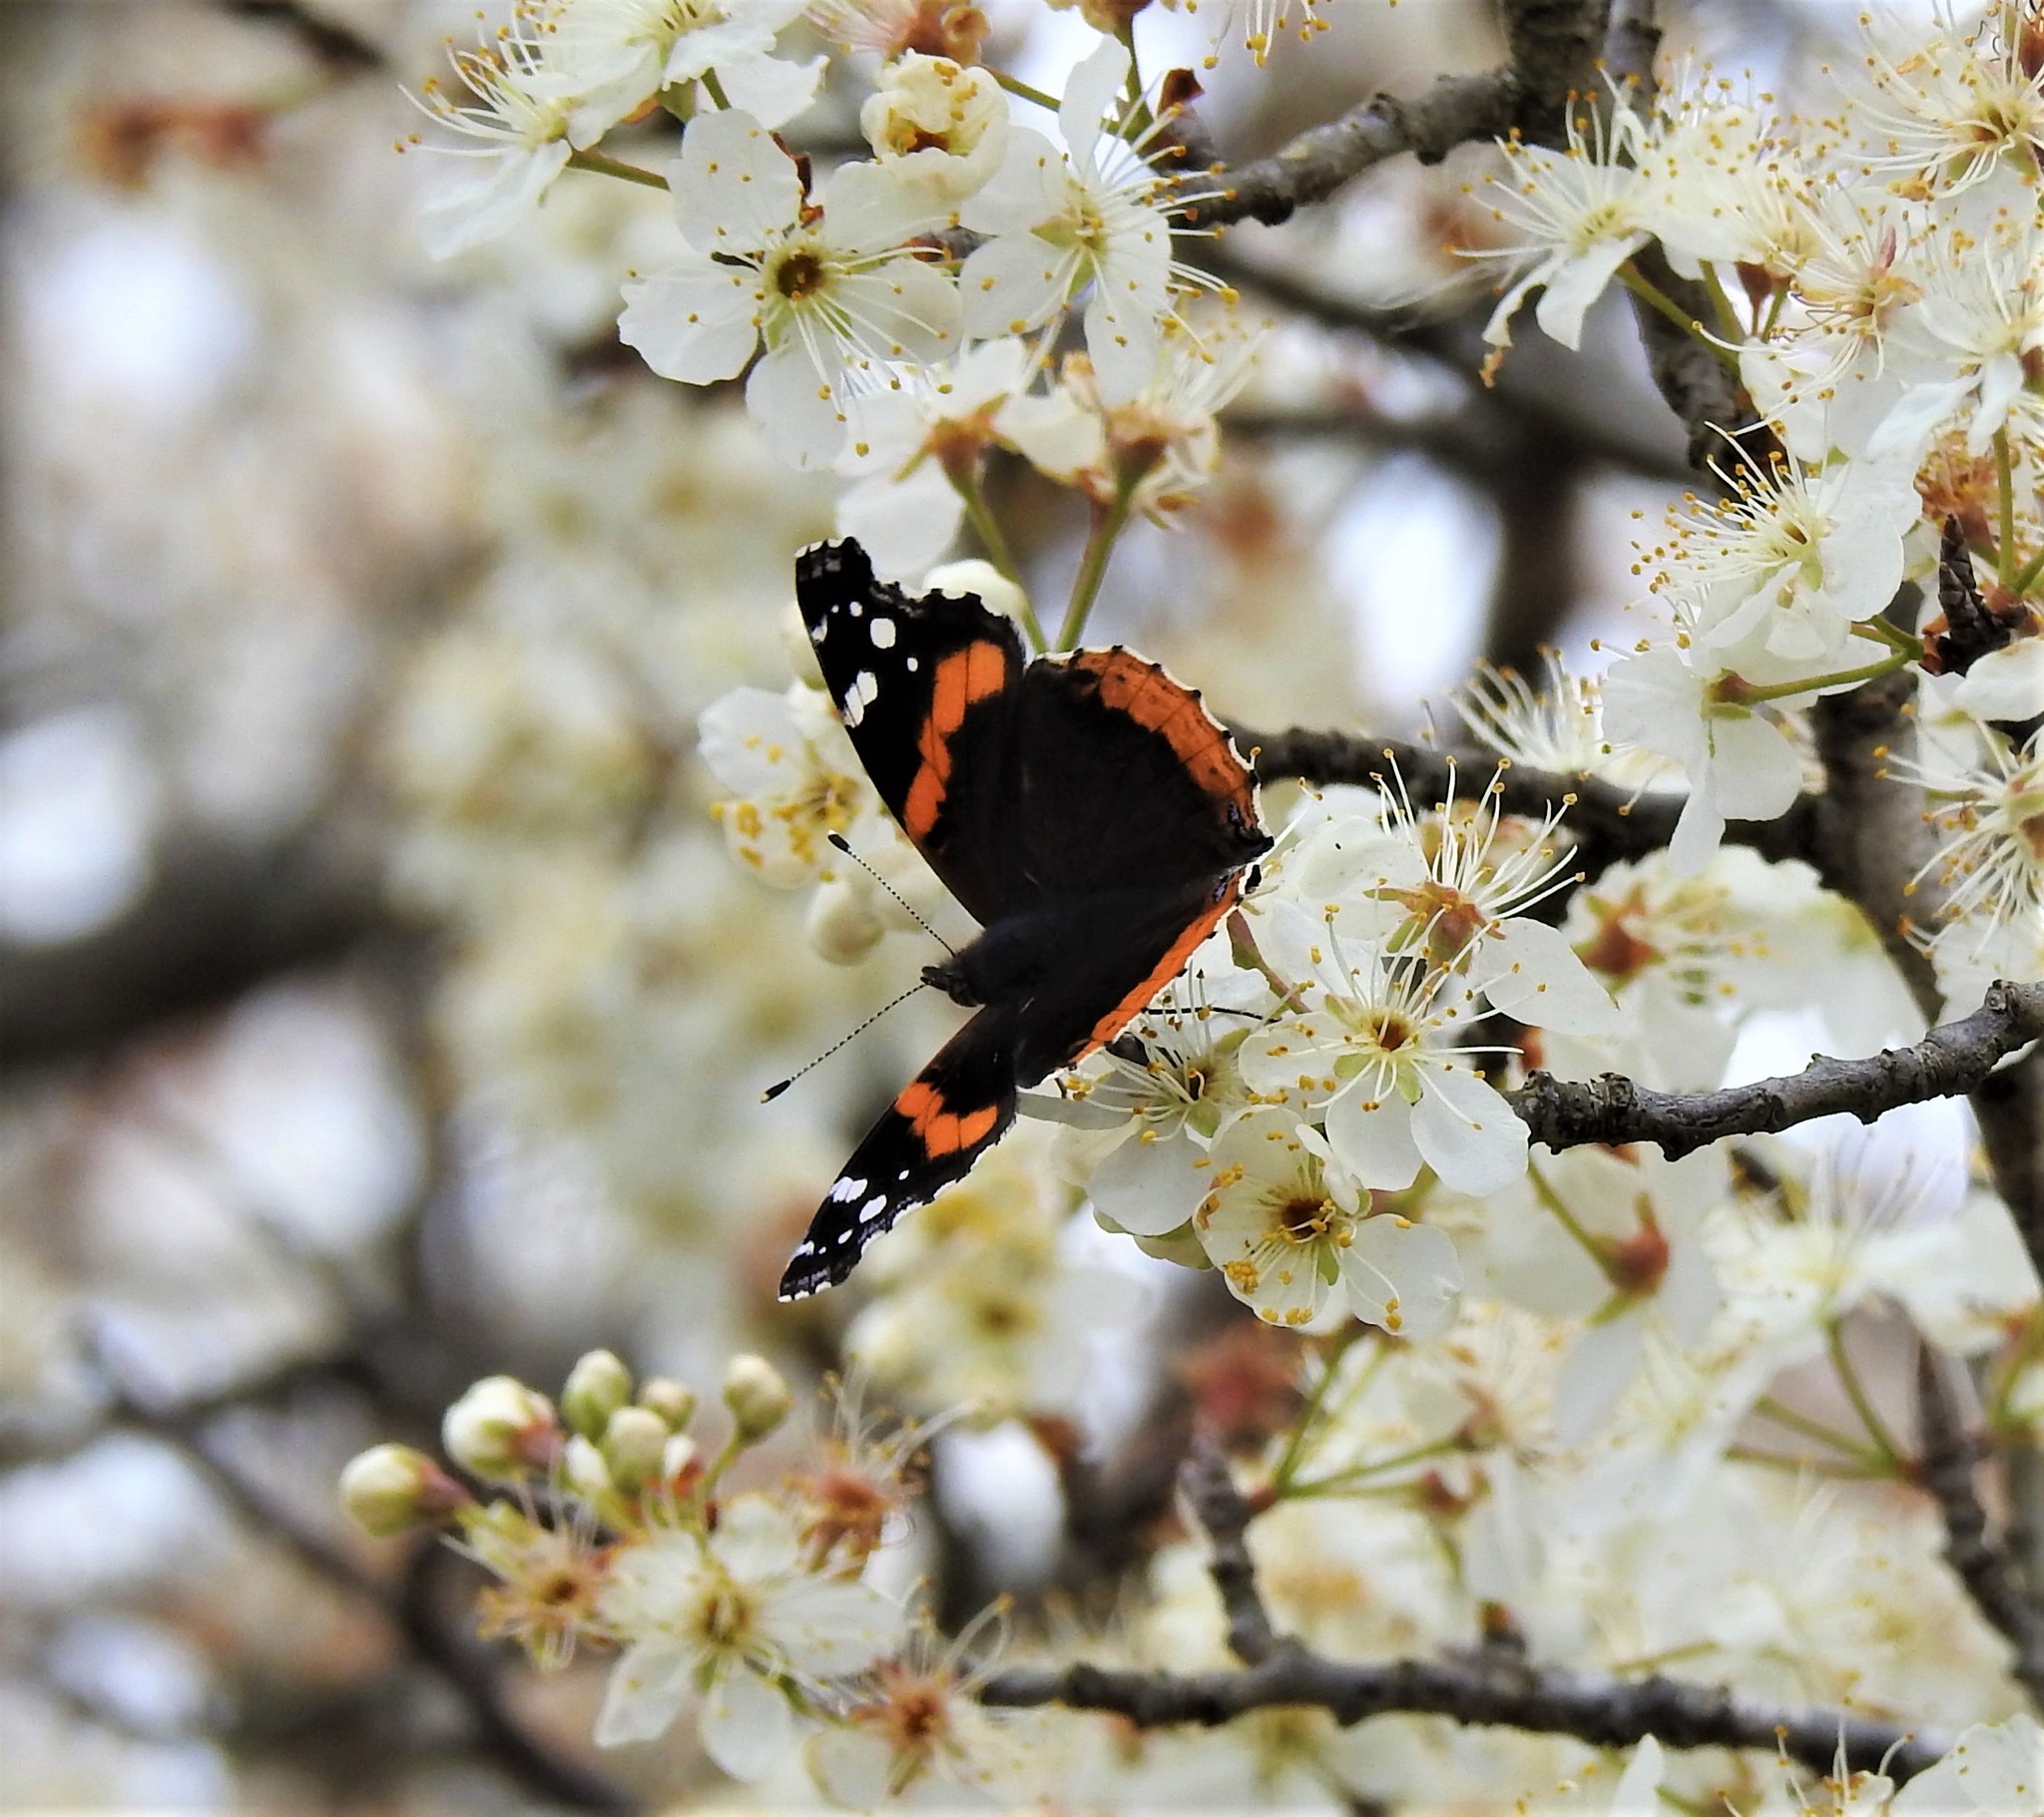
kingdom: Animalia
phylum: Arthropoda
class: Insecta
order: Lepidoptera
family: Nymphalidae
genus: Vanessa
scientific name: Vanessa atalanta
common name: Red admiral
